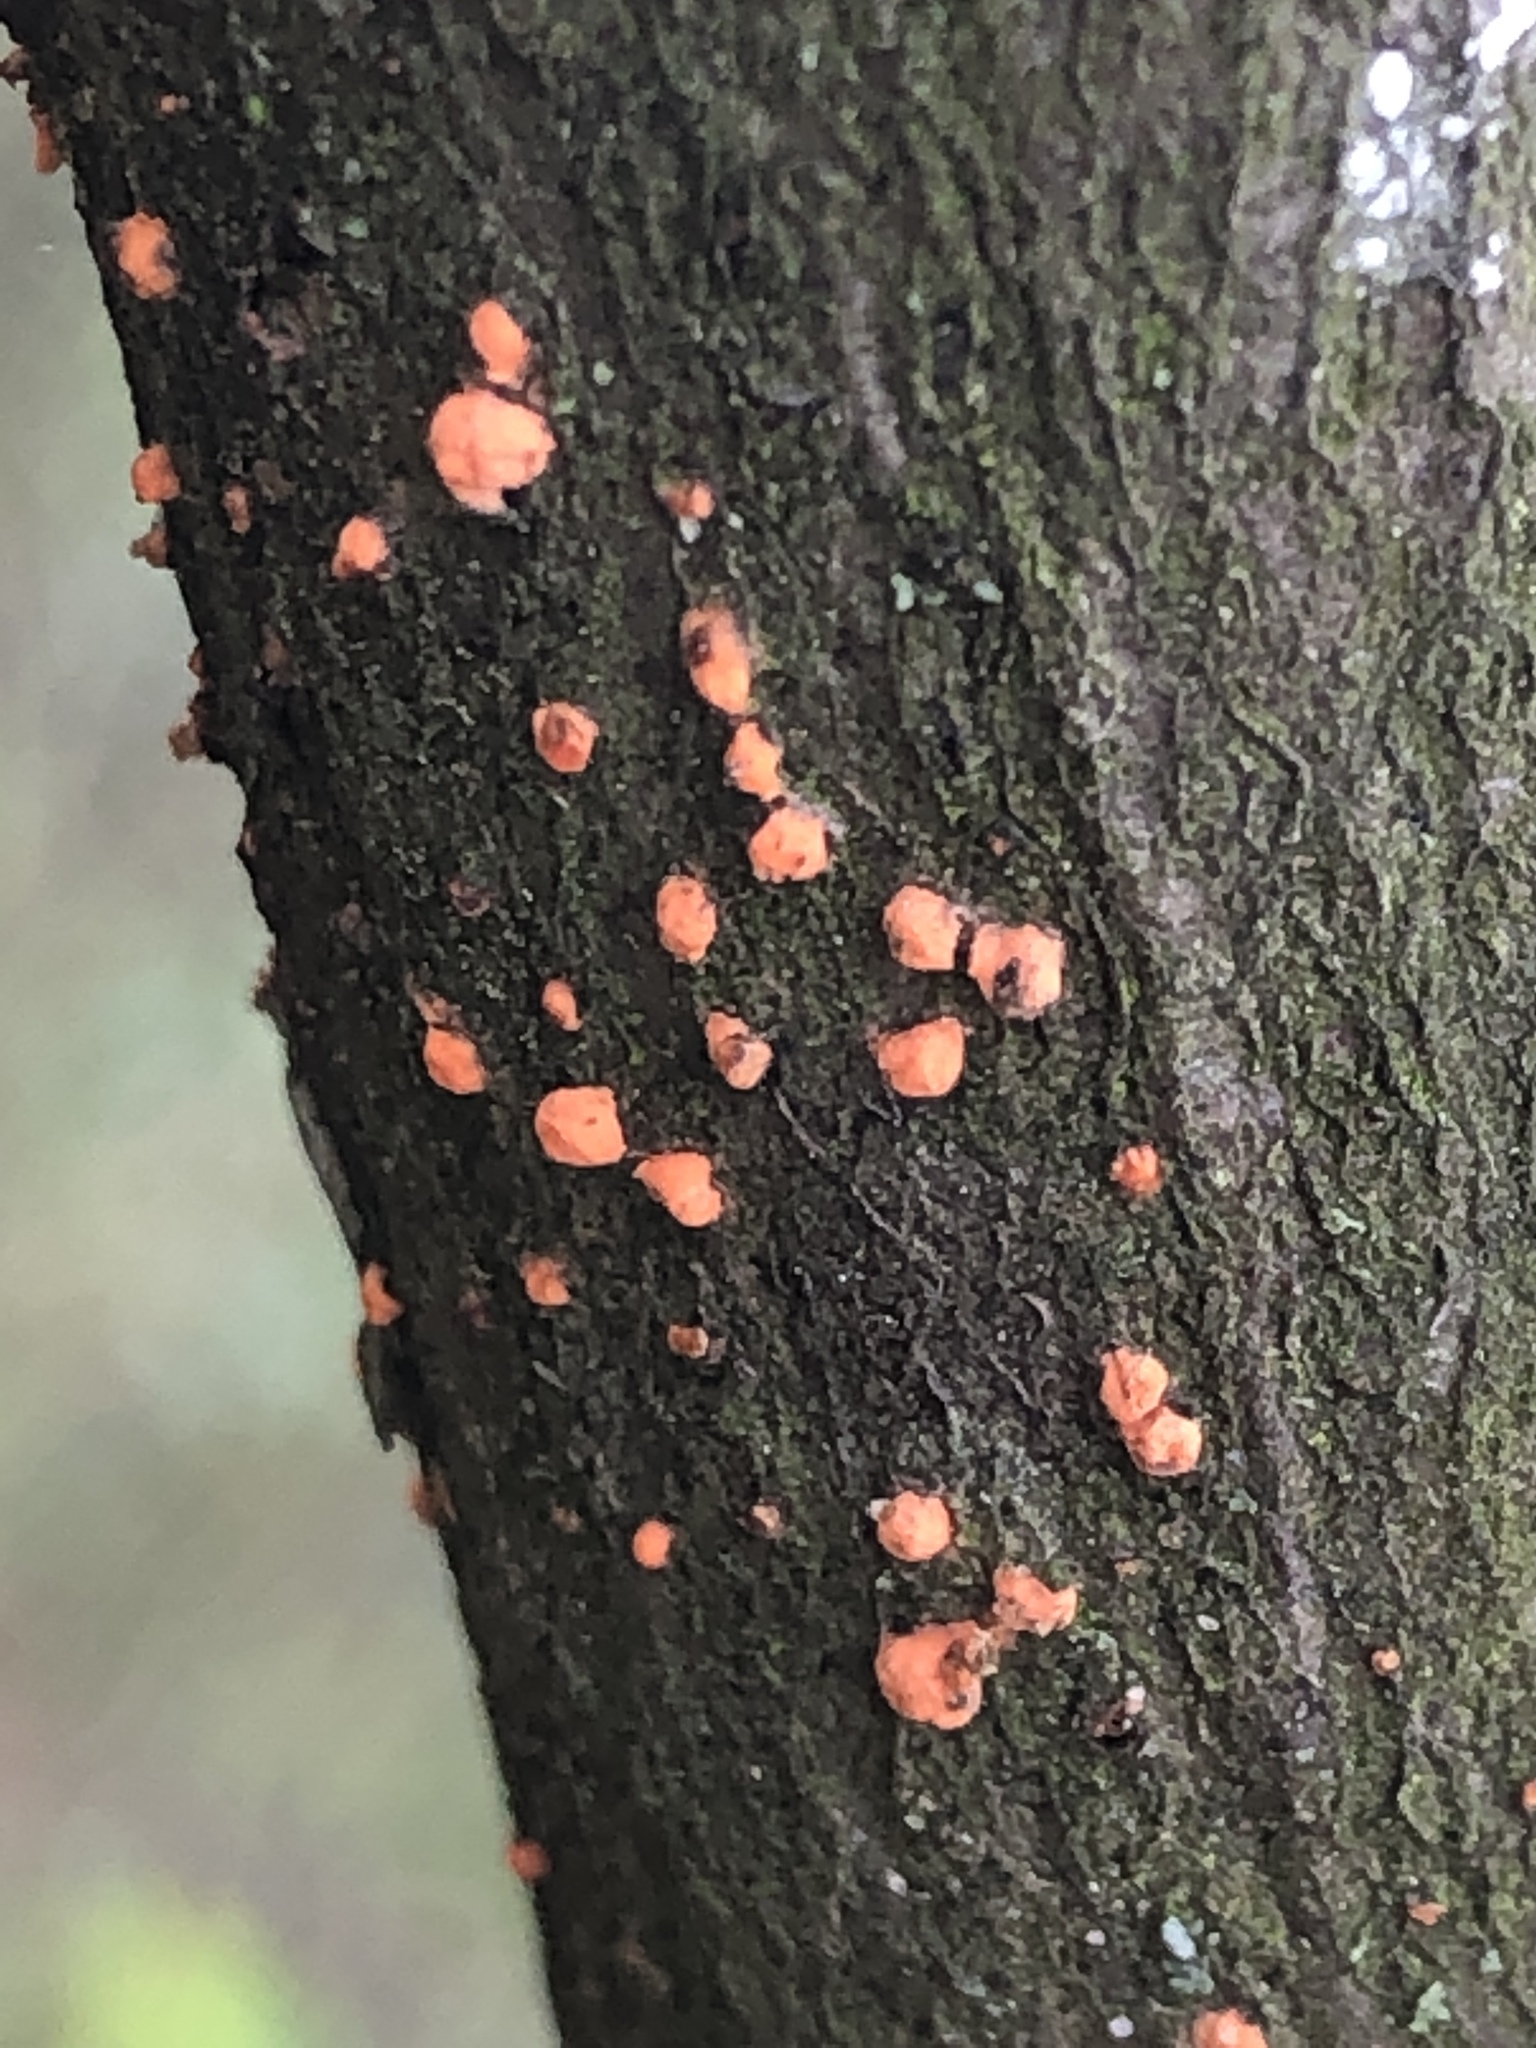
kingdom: Fungi
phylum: Ascomycota
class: Sordariomycetes
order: Hypocreales
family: Nectriaceae
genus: Nectria
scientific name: Nectria cinnabarina
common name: Coral spot
